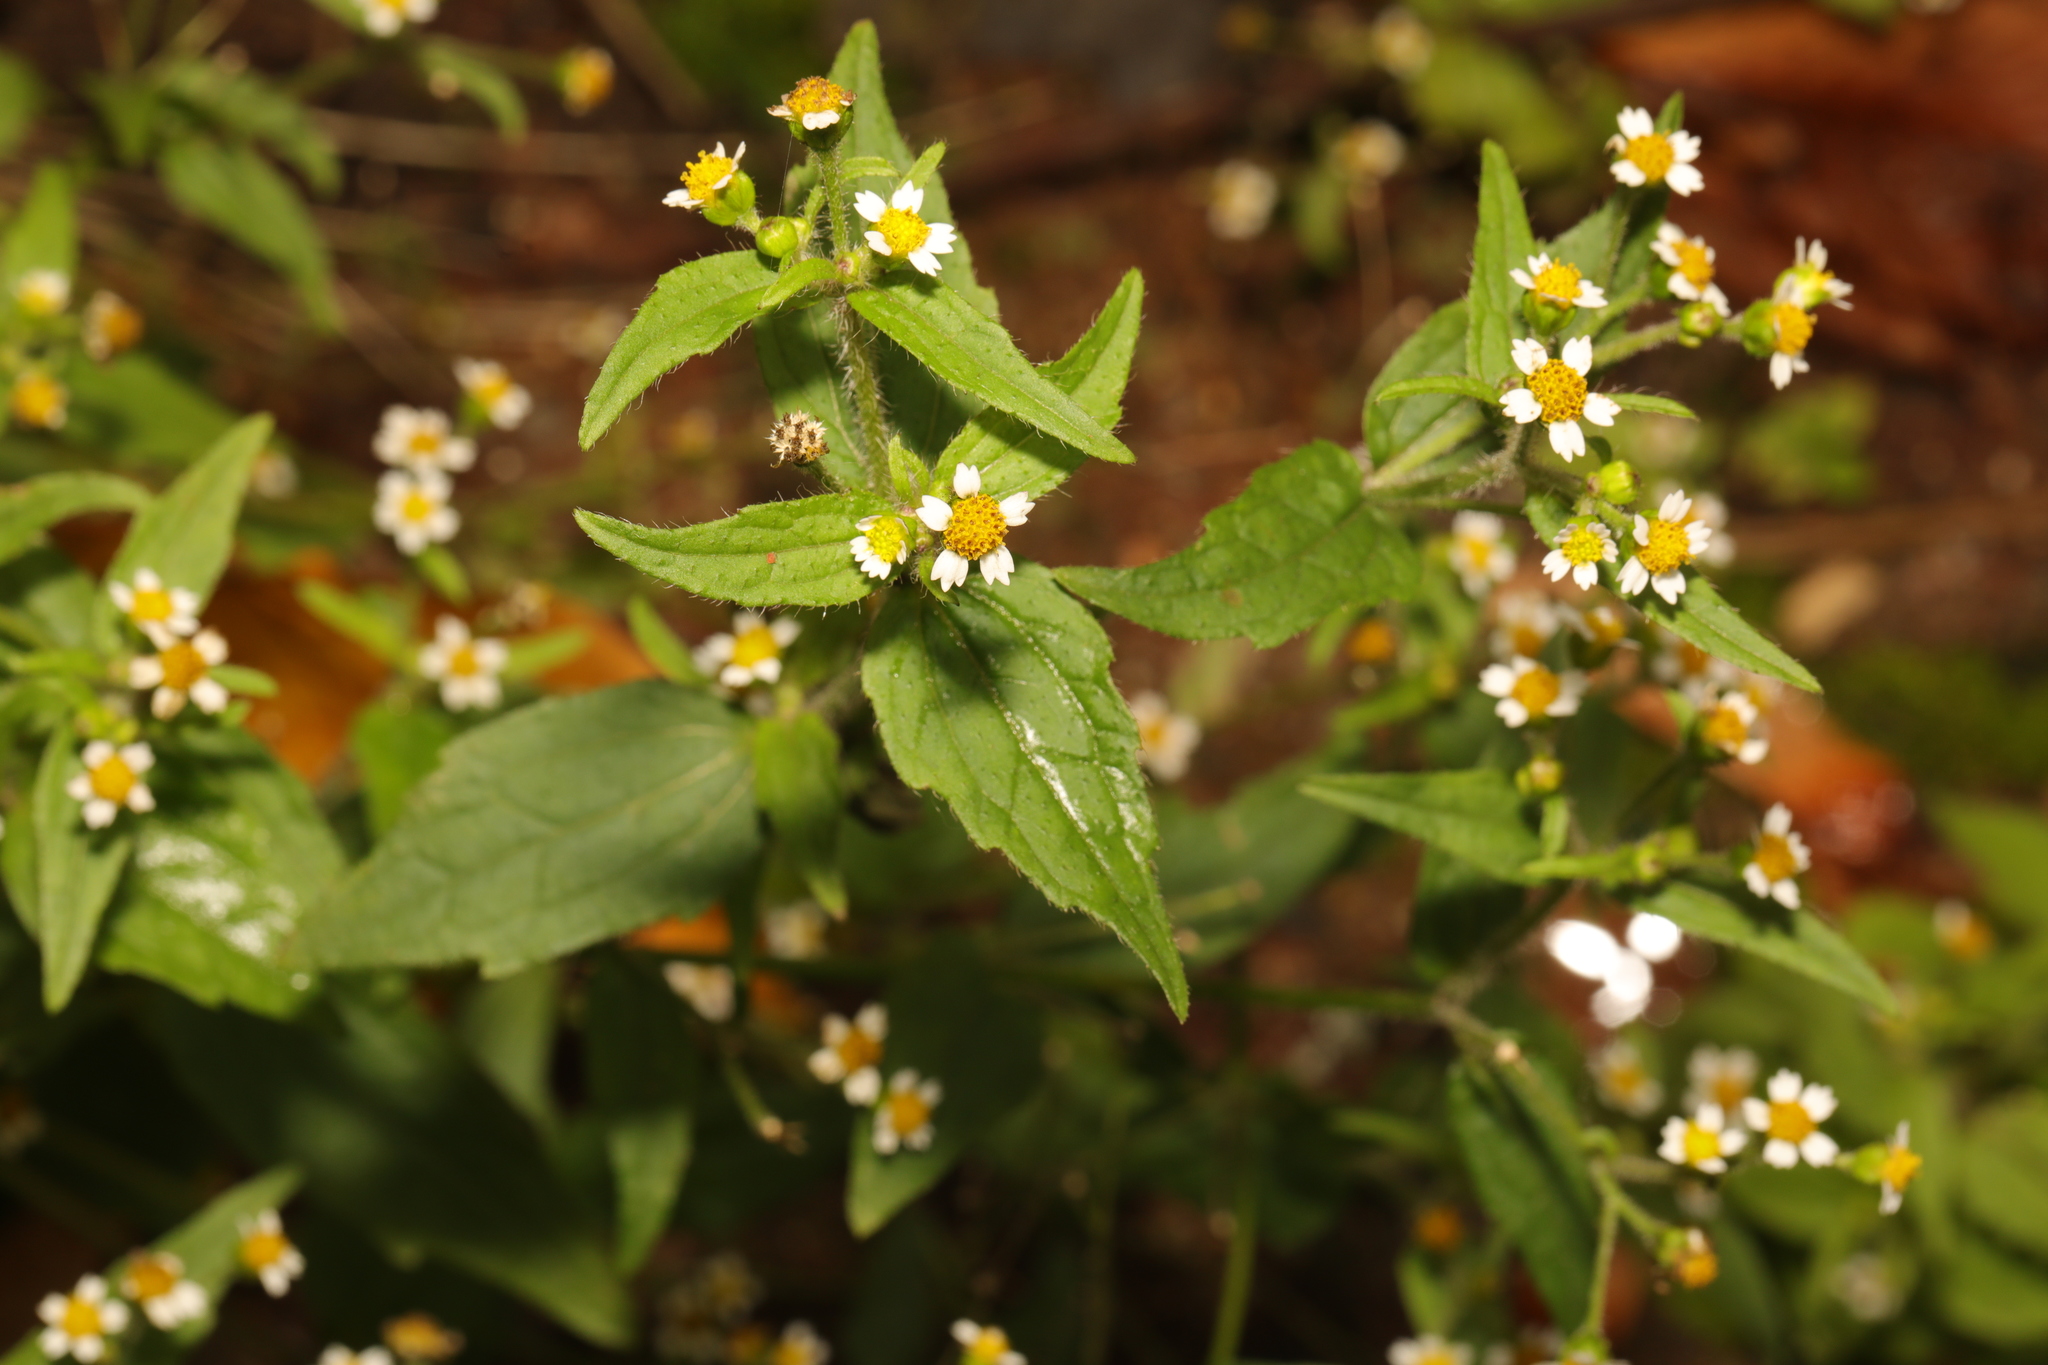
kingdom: Plantae
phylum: Tracheophyta
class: Magnoliopsida
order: Asterales
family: Asteraceae
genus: Galinsoga
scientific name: Galinsoga quadriradiata
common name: Shaggy soldier
